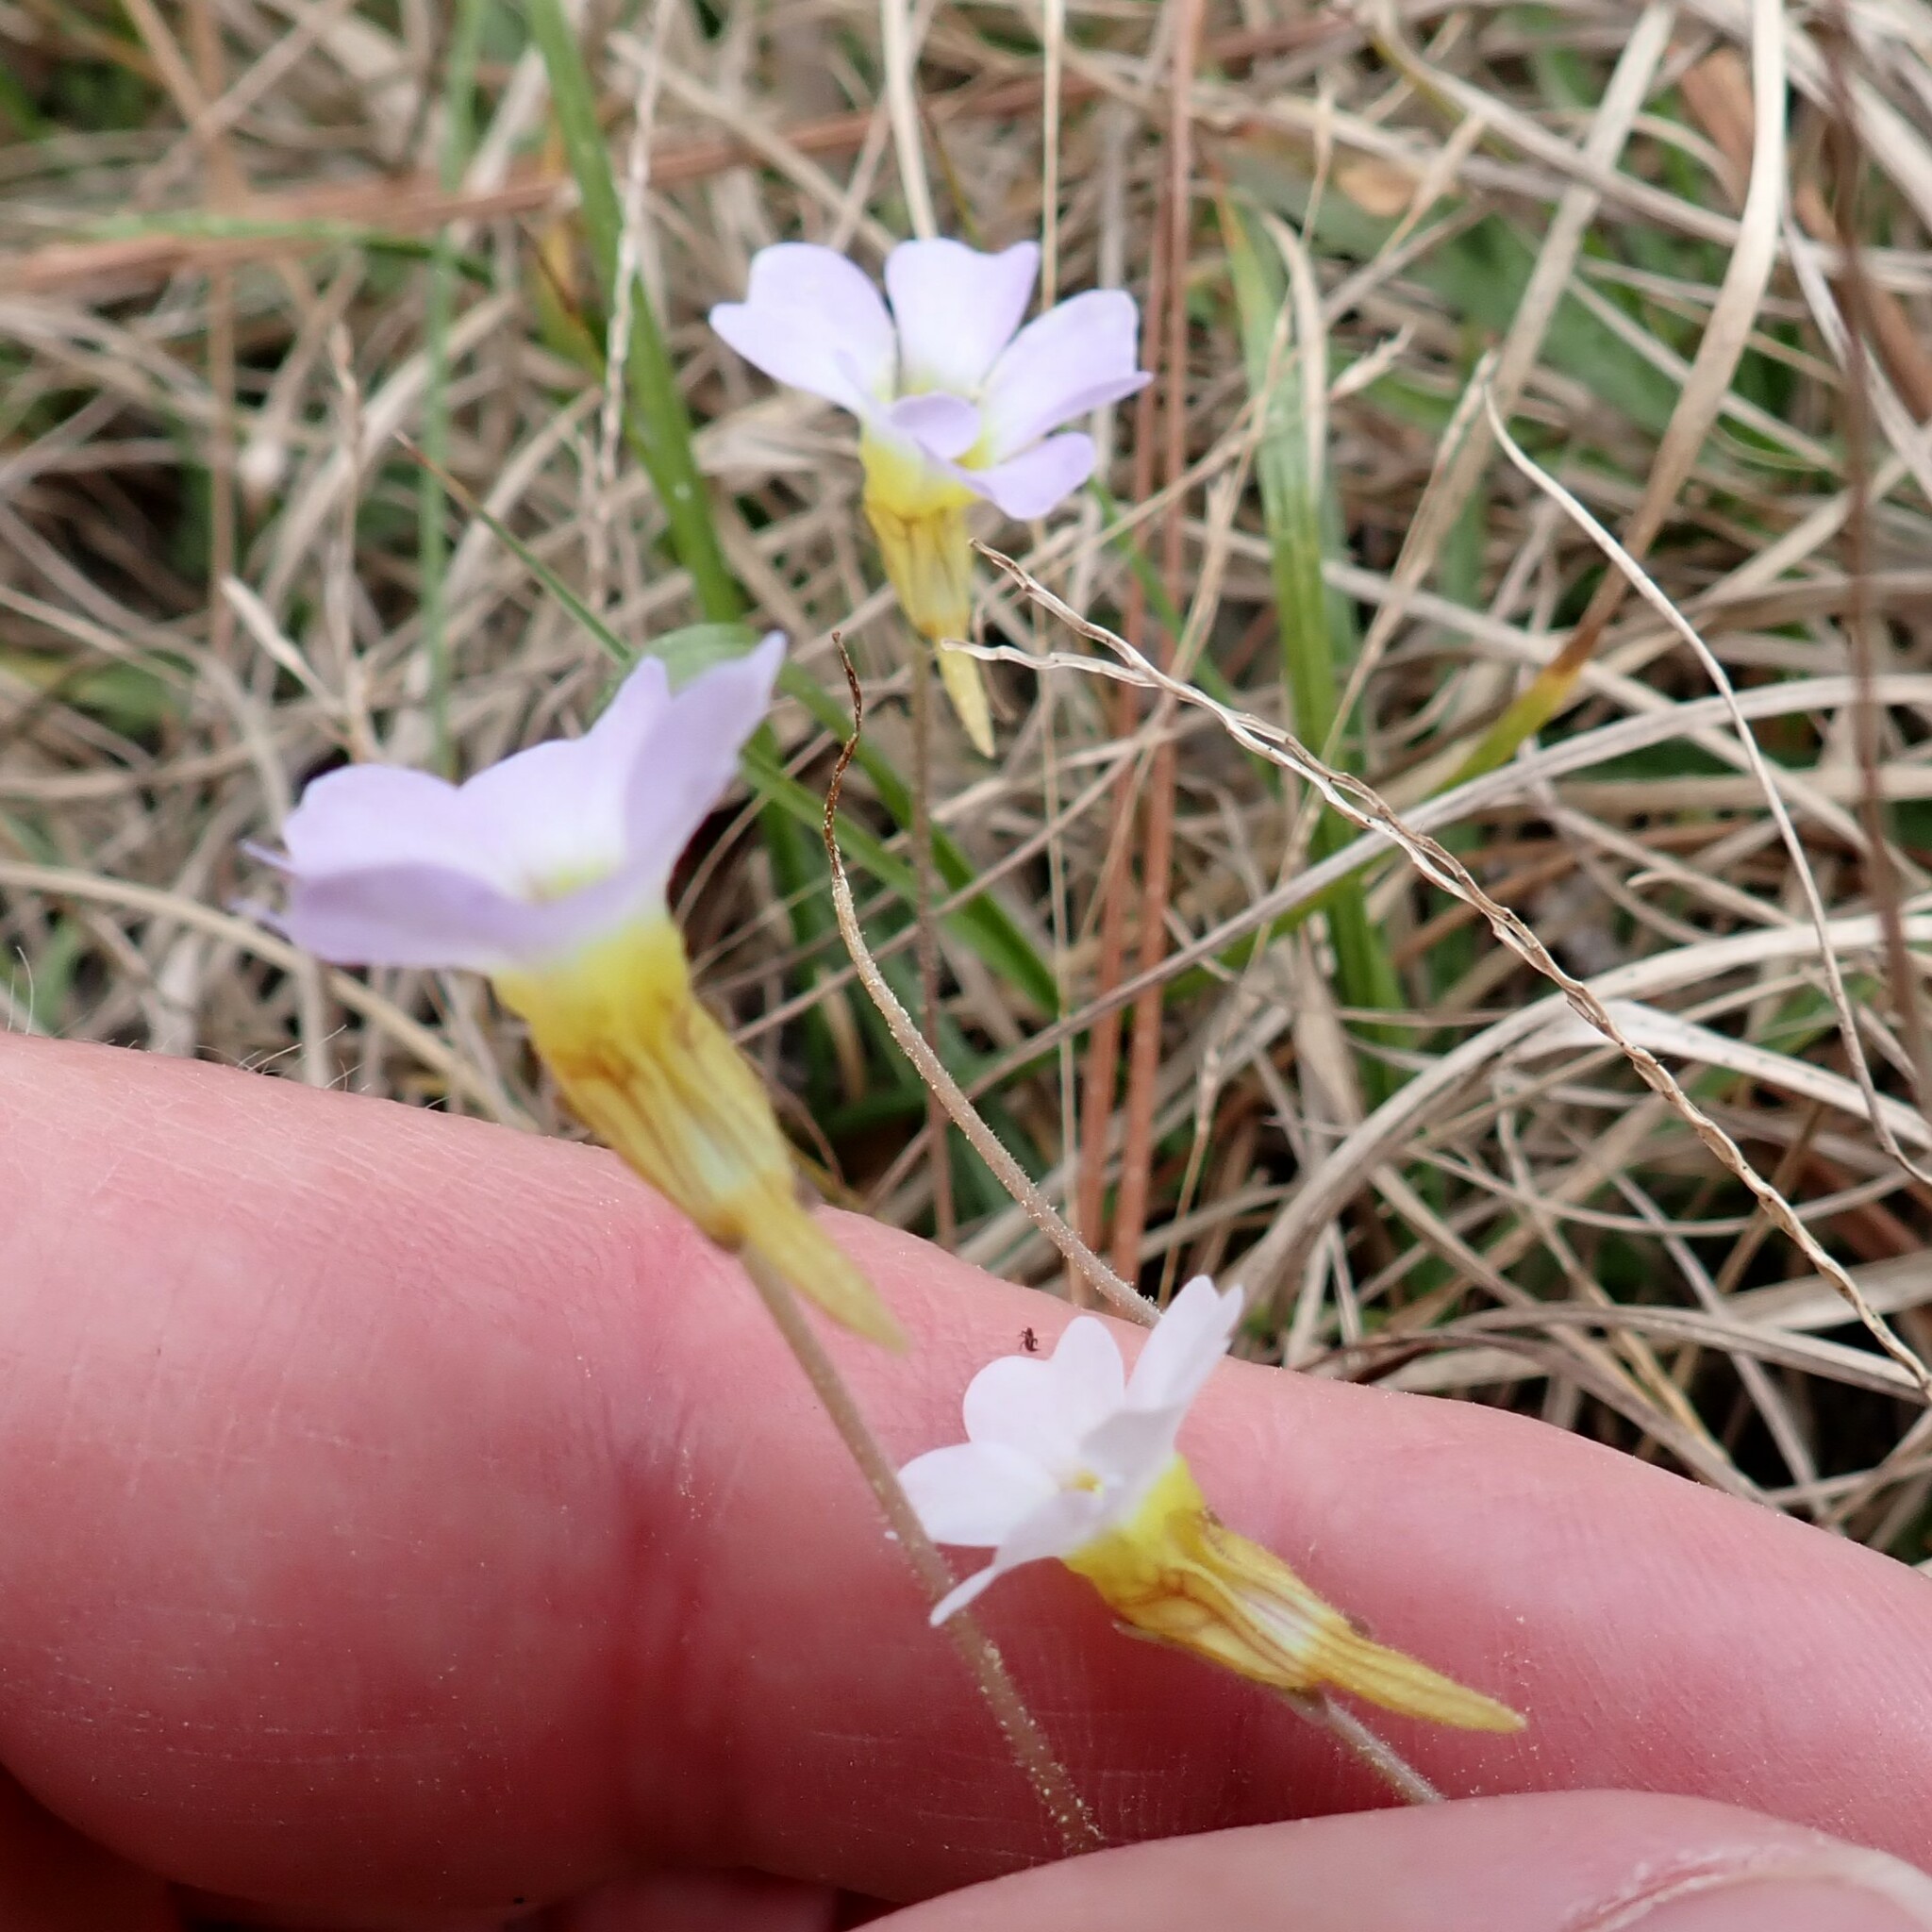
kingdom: Plantae
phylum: Tracheophyta
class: Magnoliopsida
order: Lamiales
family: Lentibulariaceae
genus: Pinguicula
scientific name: Pinguicula pumila
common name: Small butterwort
